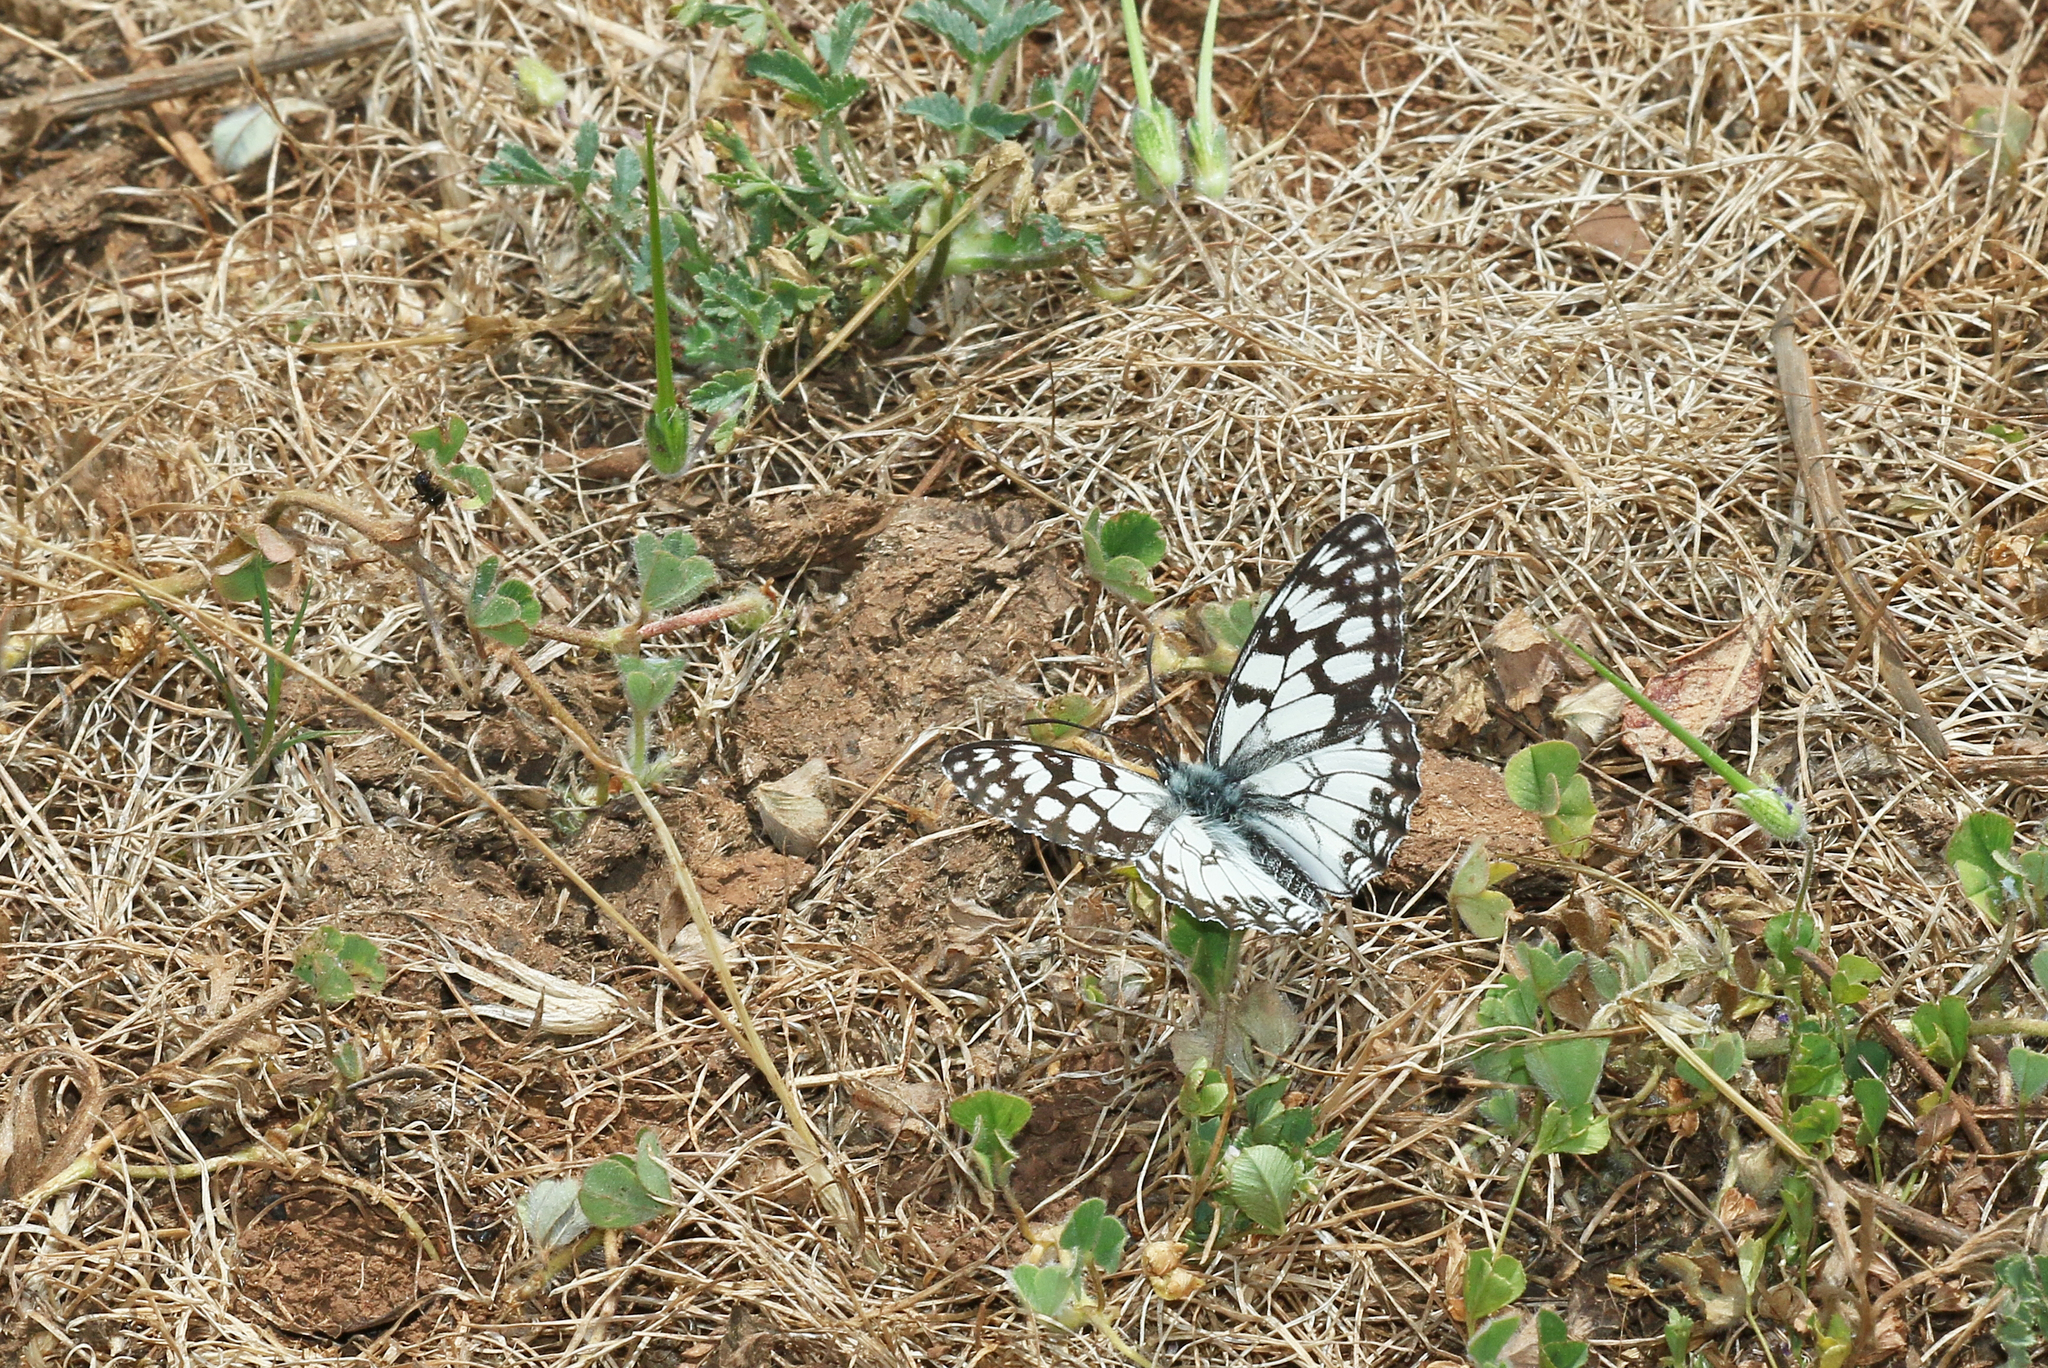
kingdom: Animalia
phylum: Arthropoda
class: Insecta
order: Lepidoptera
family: Nymphalidae
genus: Melanargia
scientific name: Melanargia ines
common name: Spanish marbled white
